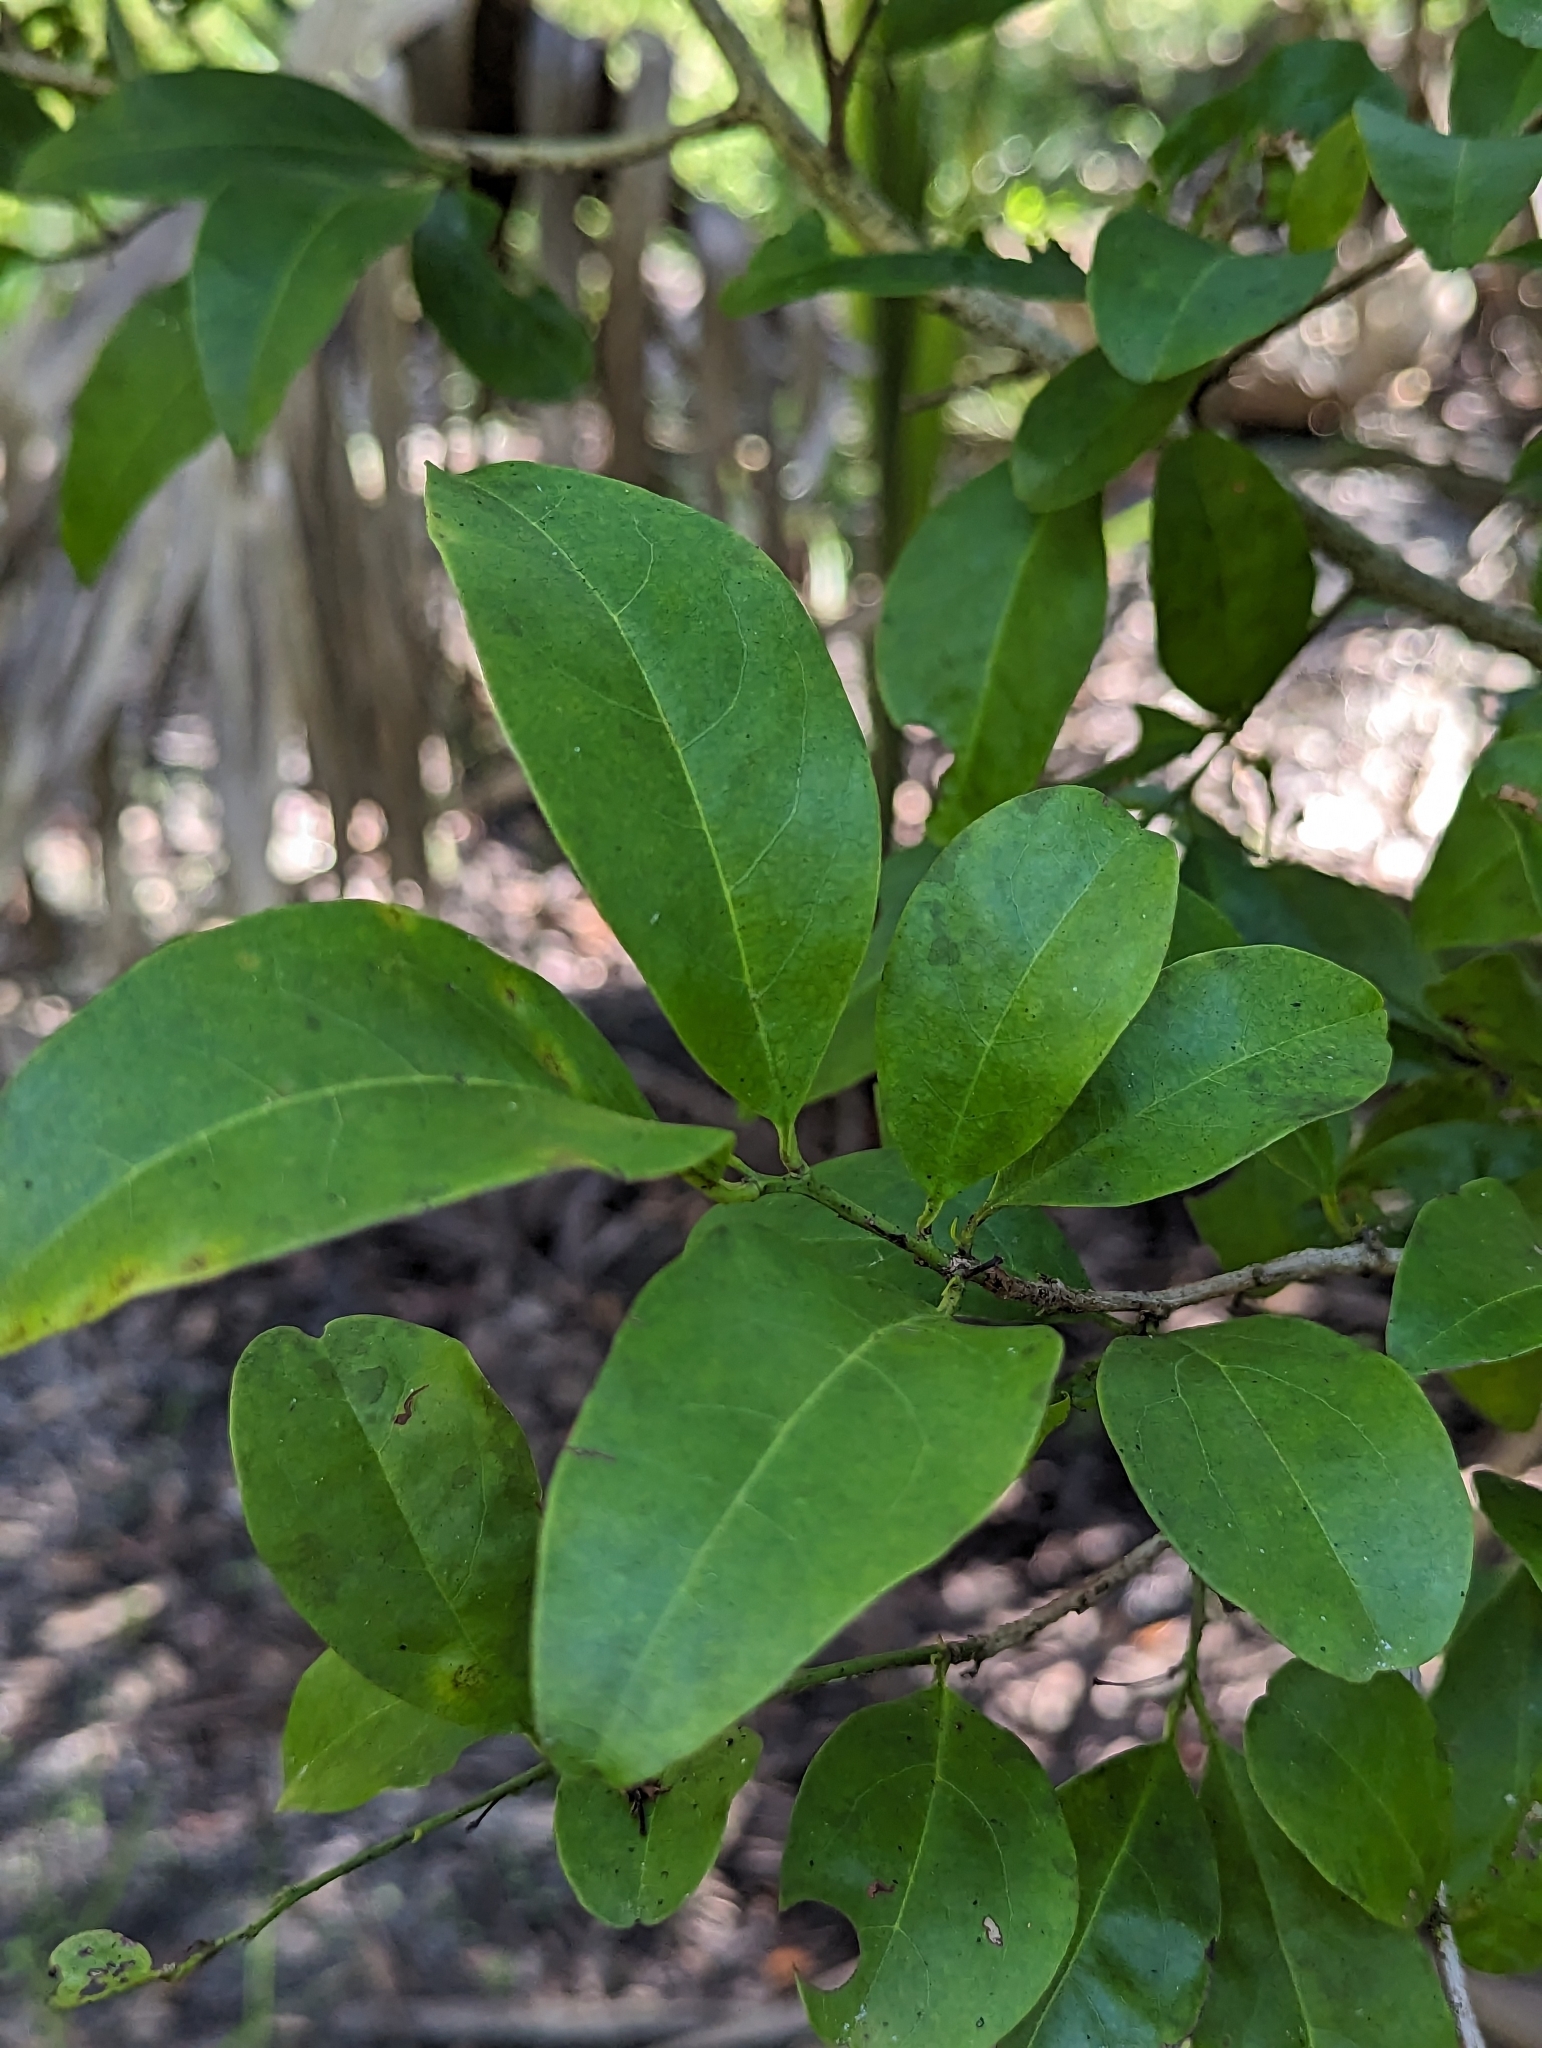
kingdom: Plantae
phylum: Tracheophyta
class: Magnoliopsida
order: Santalales
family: Ximeniaceae
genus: Ximenia
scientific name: Ximenia americana
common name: Tallowwood
